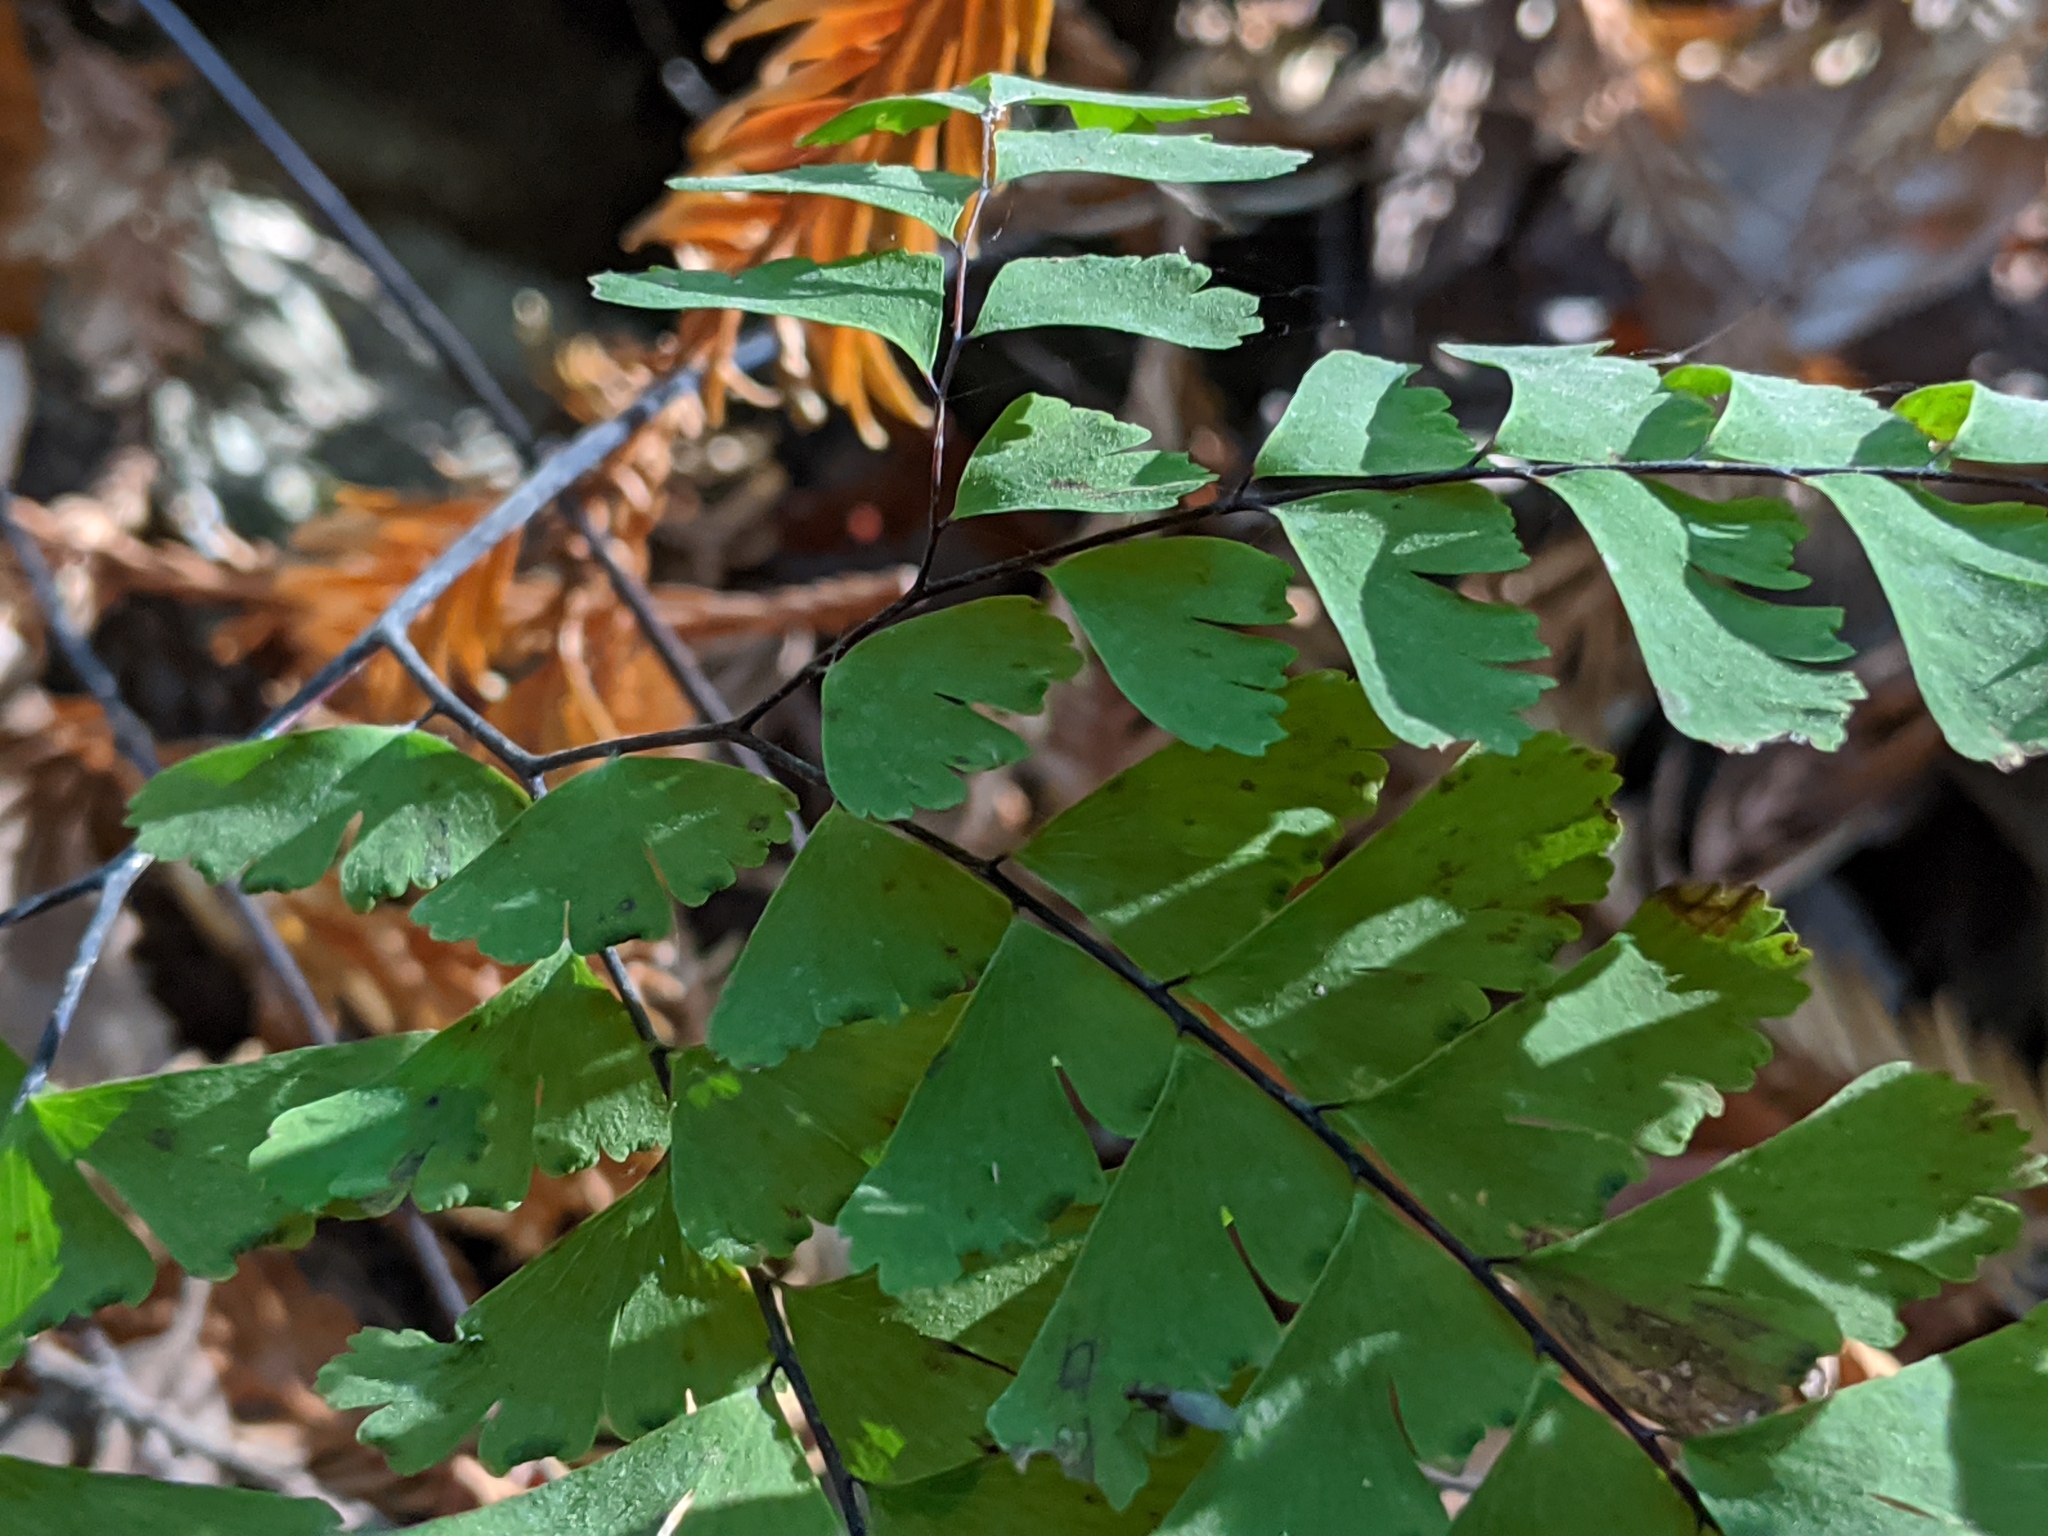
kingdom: Plantae
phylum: Tracheophyta
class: Polypodiopsida
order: Polypodiales
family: Pteridaceae
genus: Adiantum
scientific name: Adiantum aleuticum
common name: Aleutian maidenhair fern
